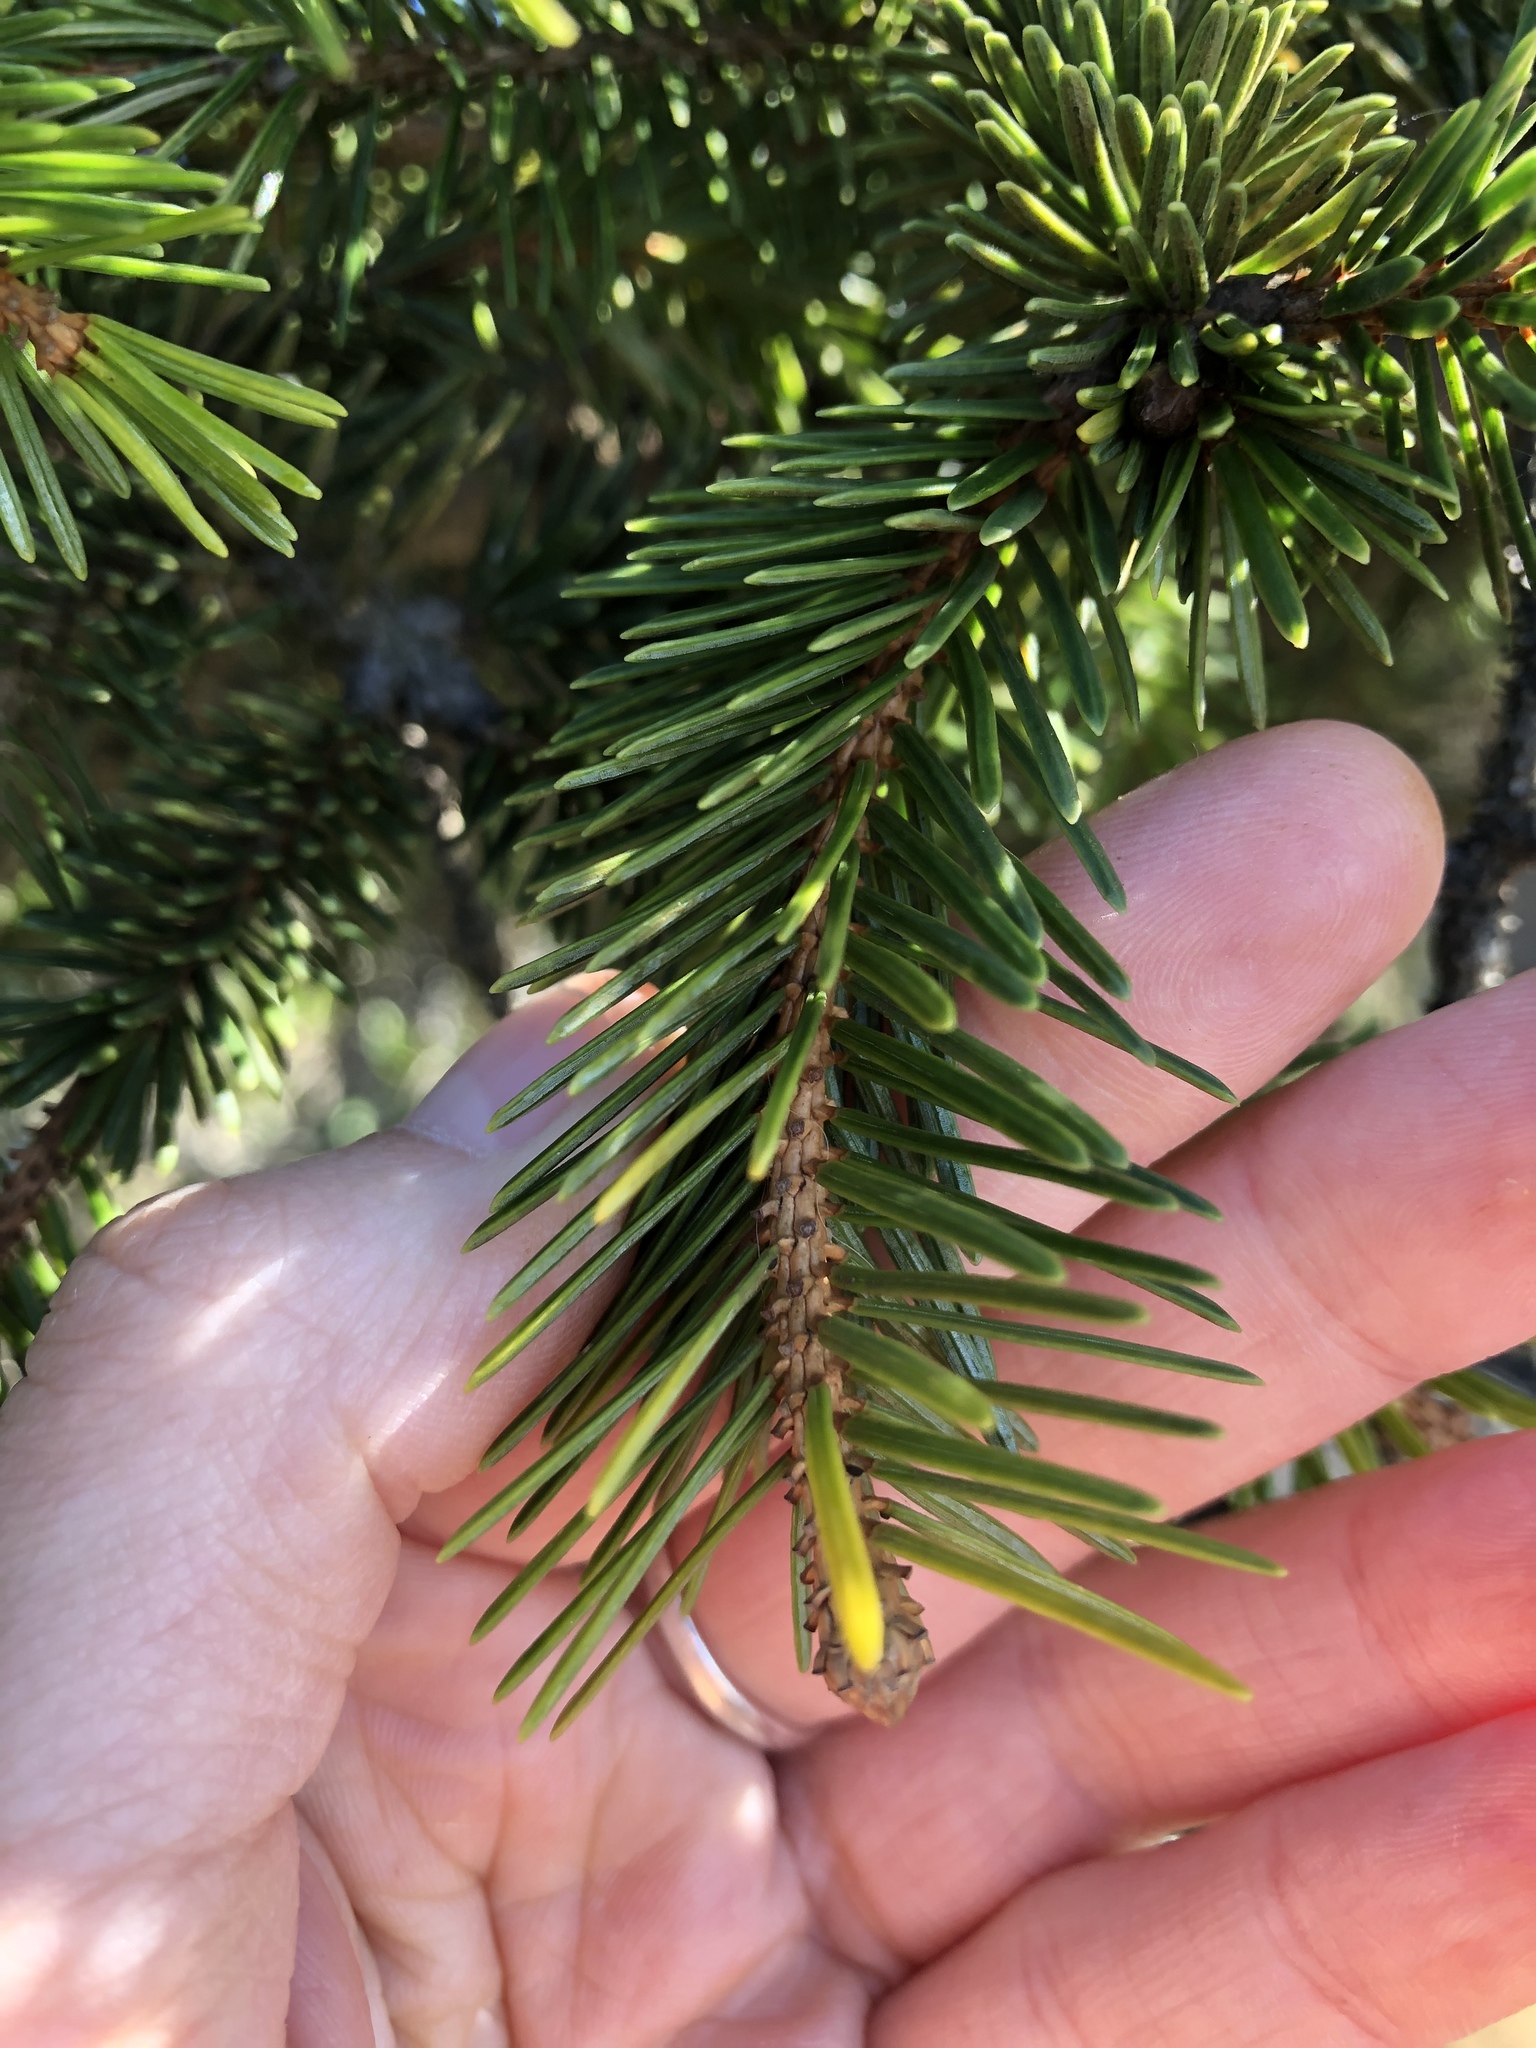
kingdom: Plantae
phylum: Tracheophyta
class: Pinopsida
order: Pinales
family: Pinaceae
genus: Picea
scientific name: Picea sitchensis
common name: Sitka spruce
